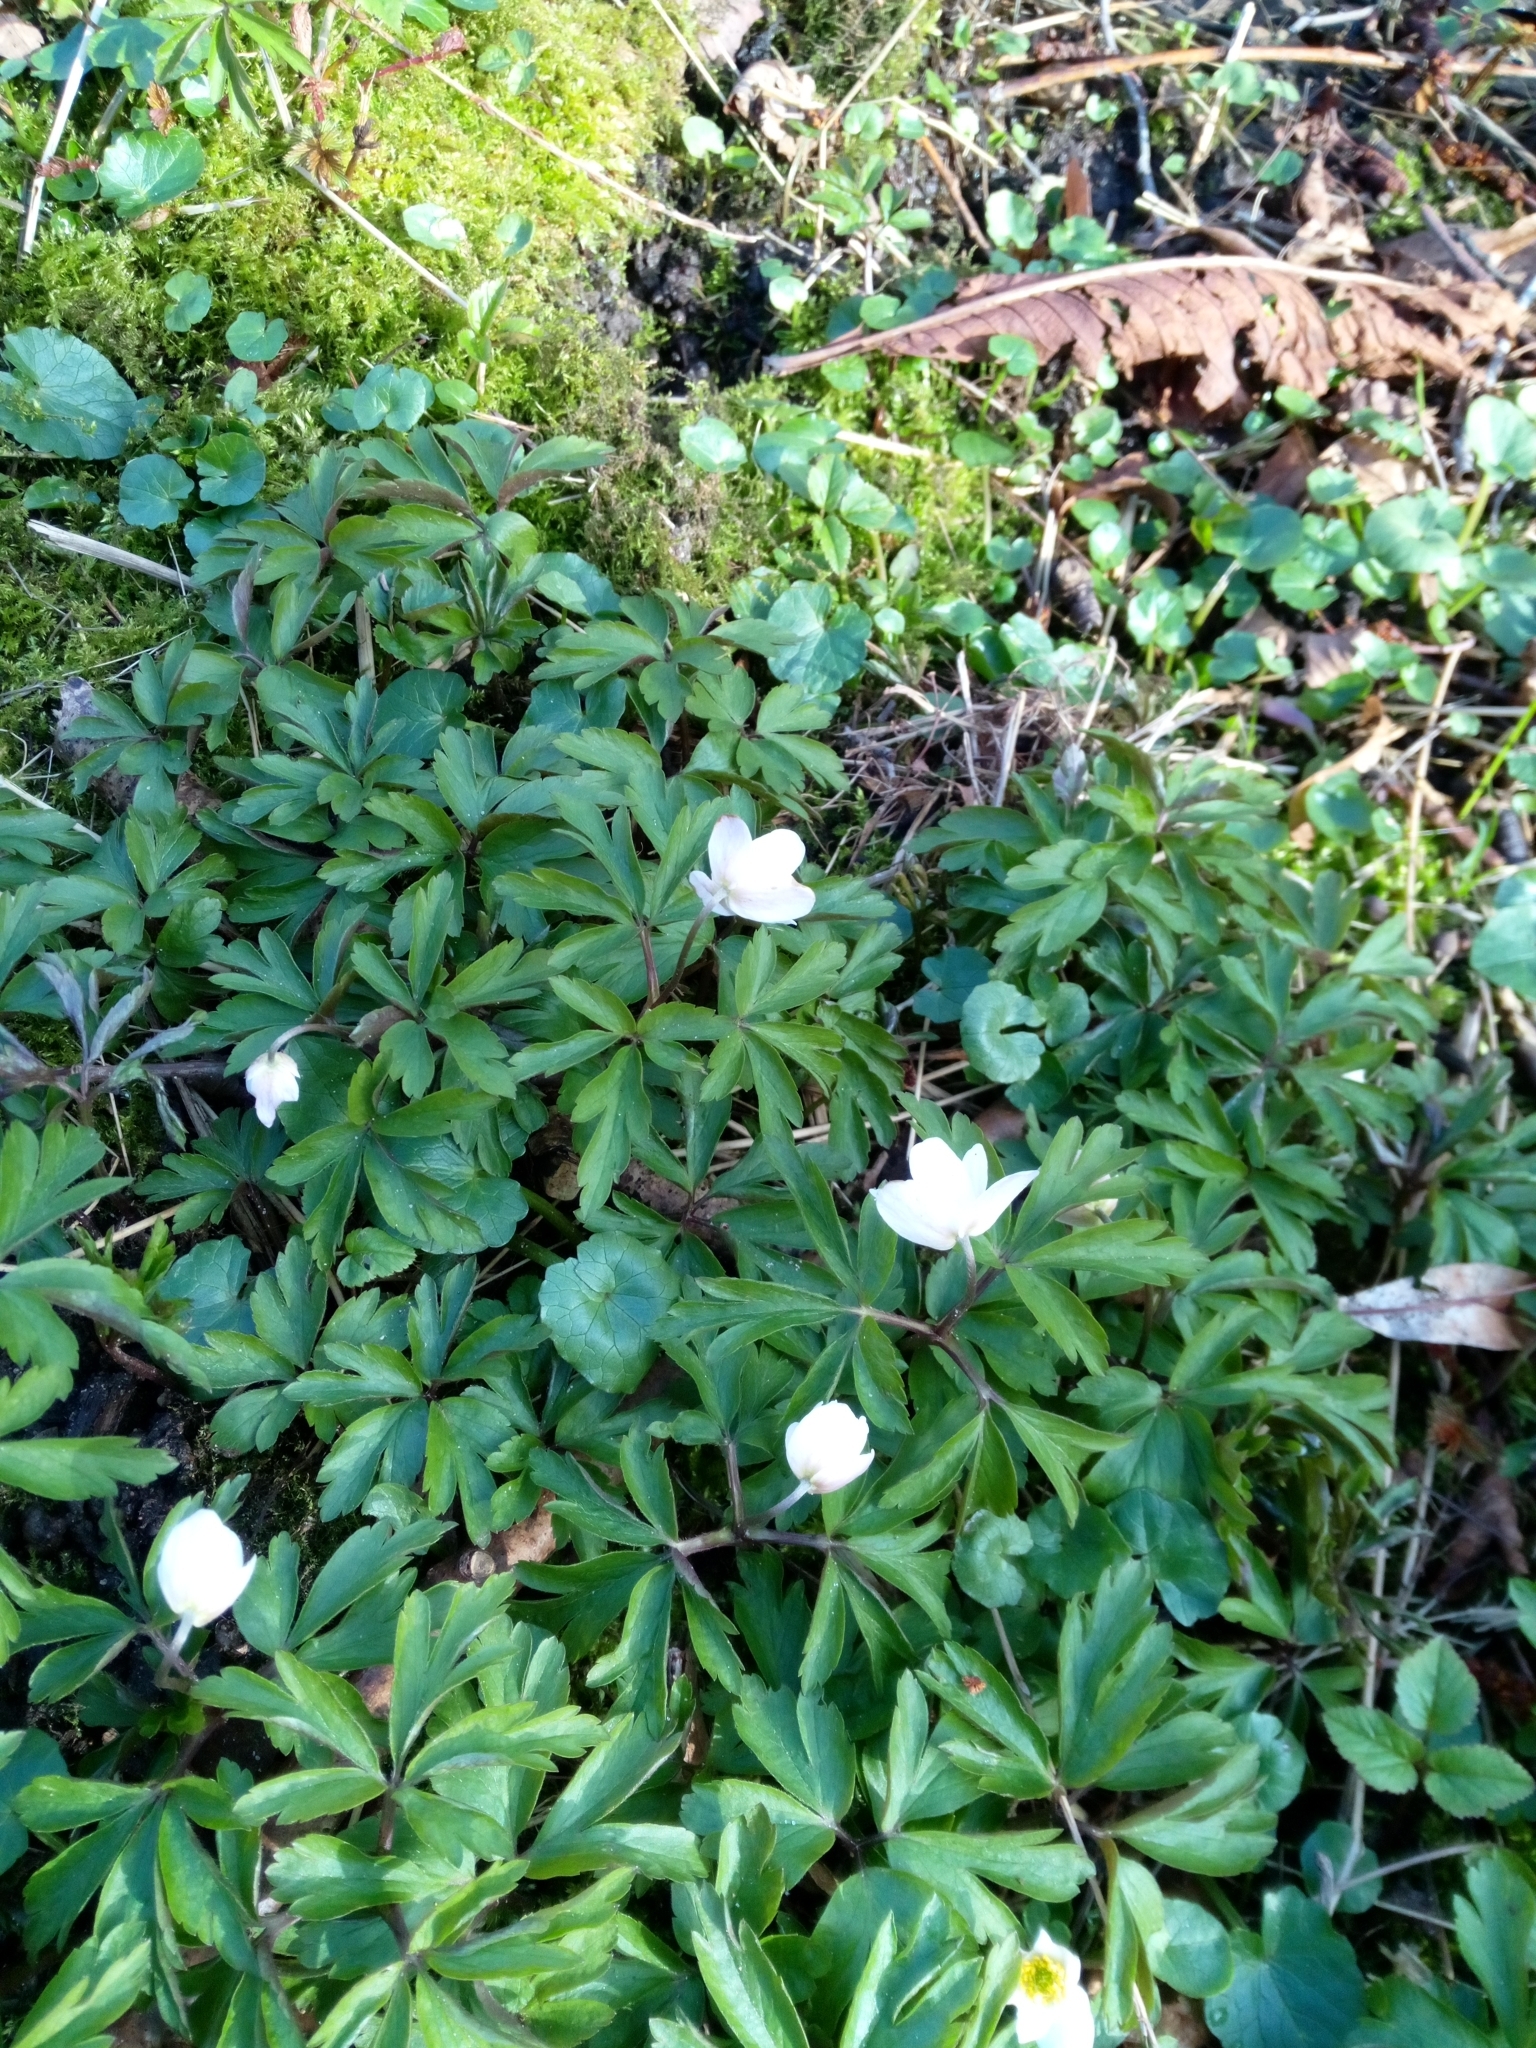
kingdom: Plantae
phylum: Tracheophyta
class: Magnoliopsida
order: Ranunculales
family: Ranunculaceae
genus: Anemone
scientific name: Anemone nemorosa
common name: Wood anemone
